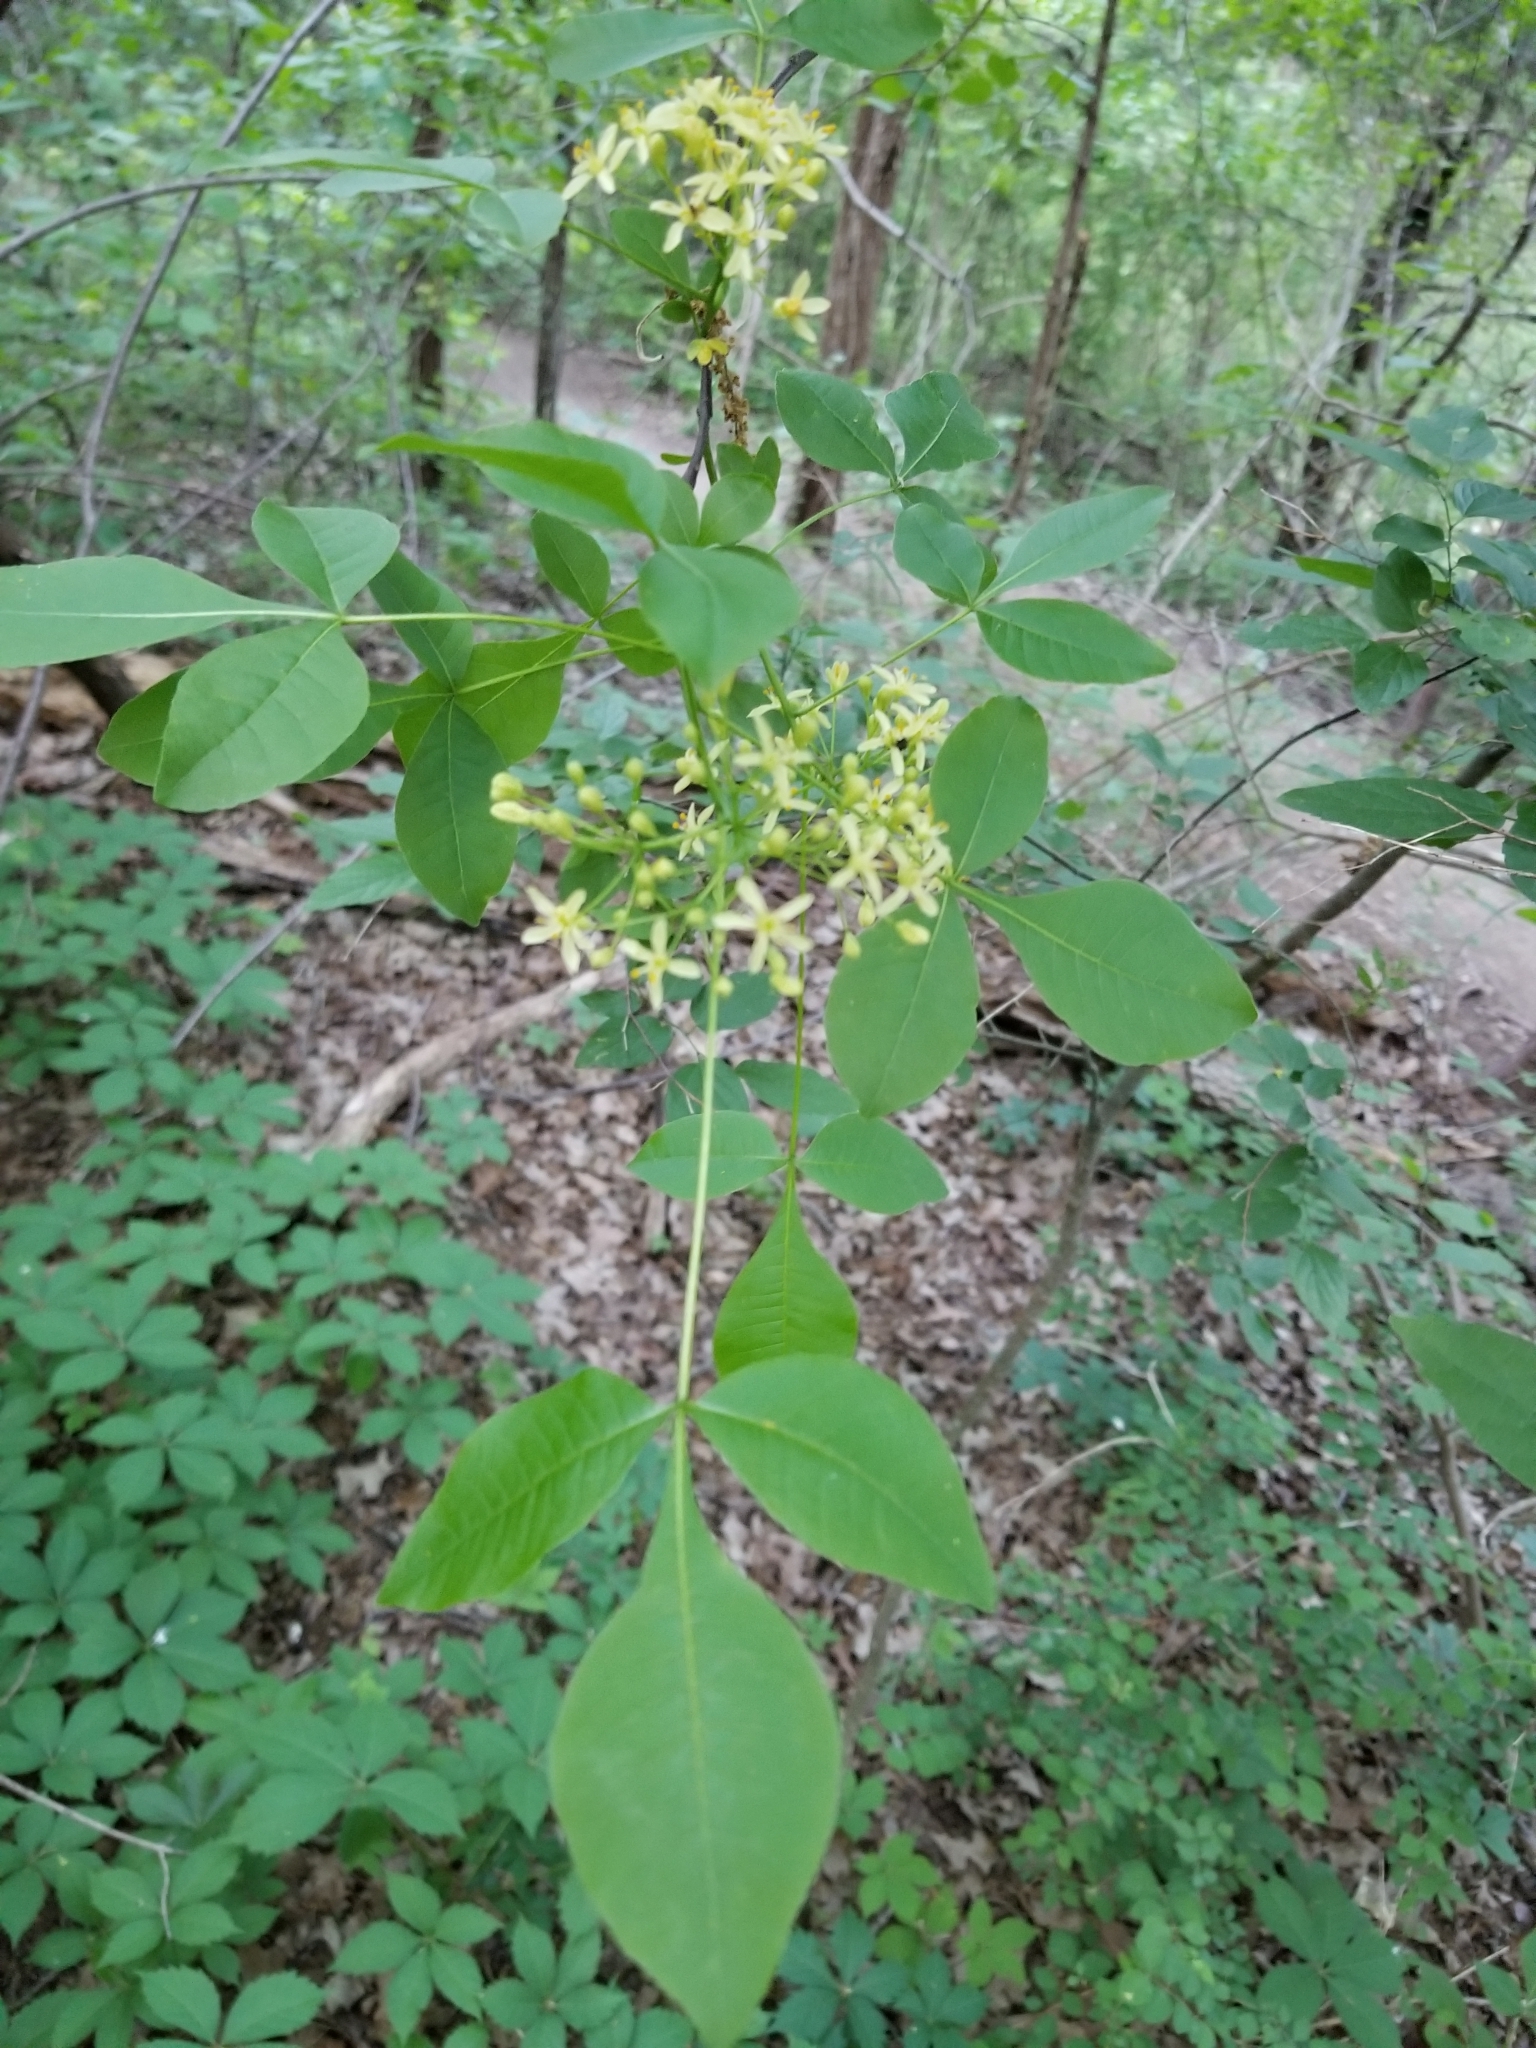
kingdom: Plantae
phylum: Tracheophyta
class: Magnoliopsida
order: Sapindales
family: Rutaceae
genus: Ptelea
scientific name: Ptelea trifoliata
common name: Common hop-tree
